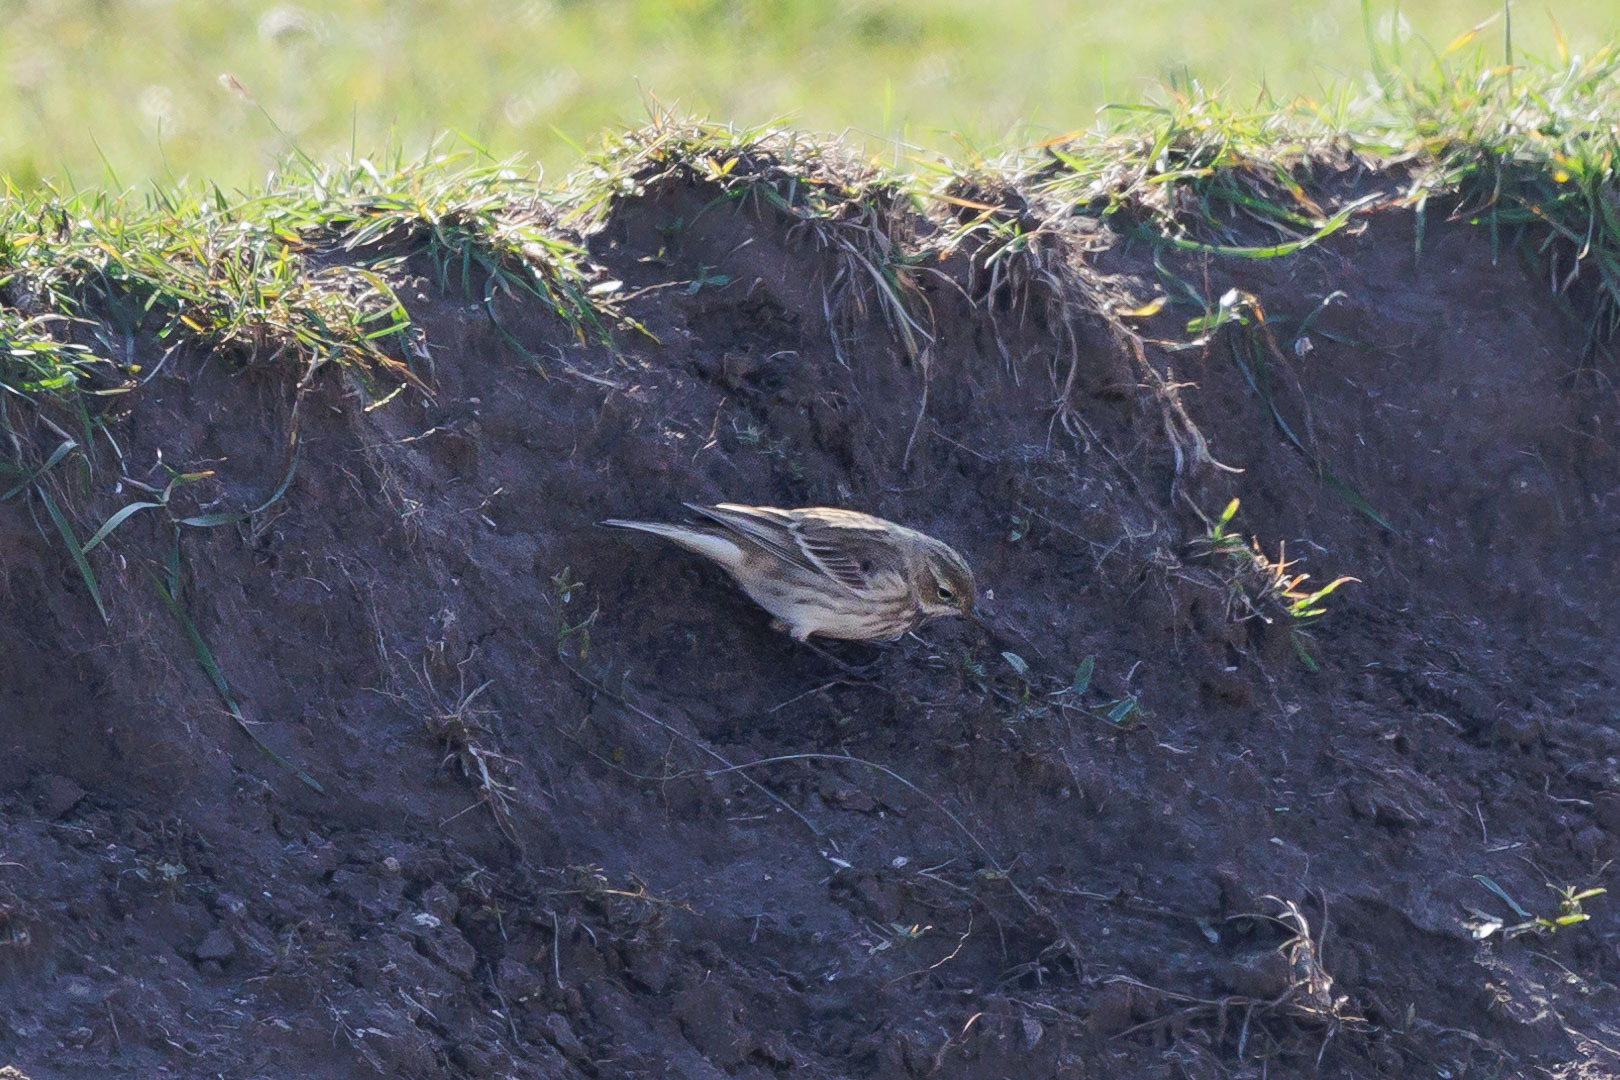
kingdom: Animalia
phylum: Chordata
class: Aves
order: Passeriformes
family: Motacillidae
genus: Anthus
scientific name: Anthus spinoletta
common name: Water pipit
